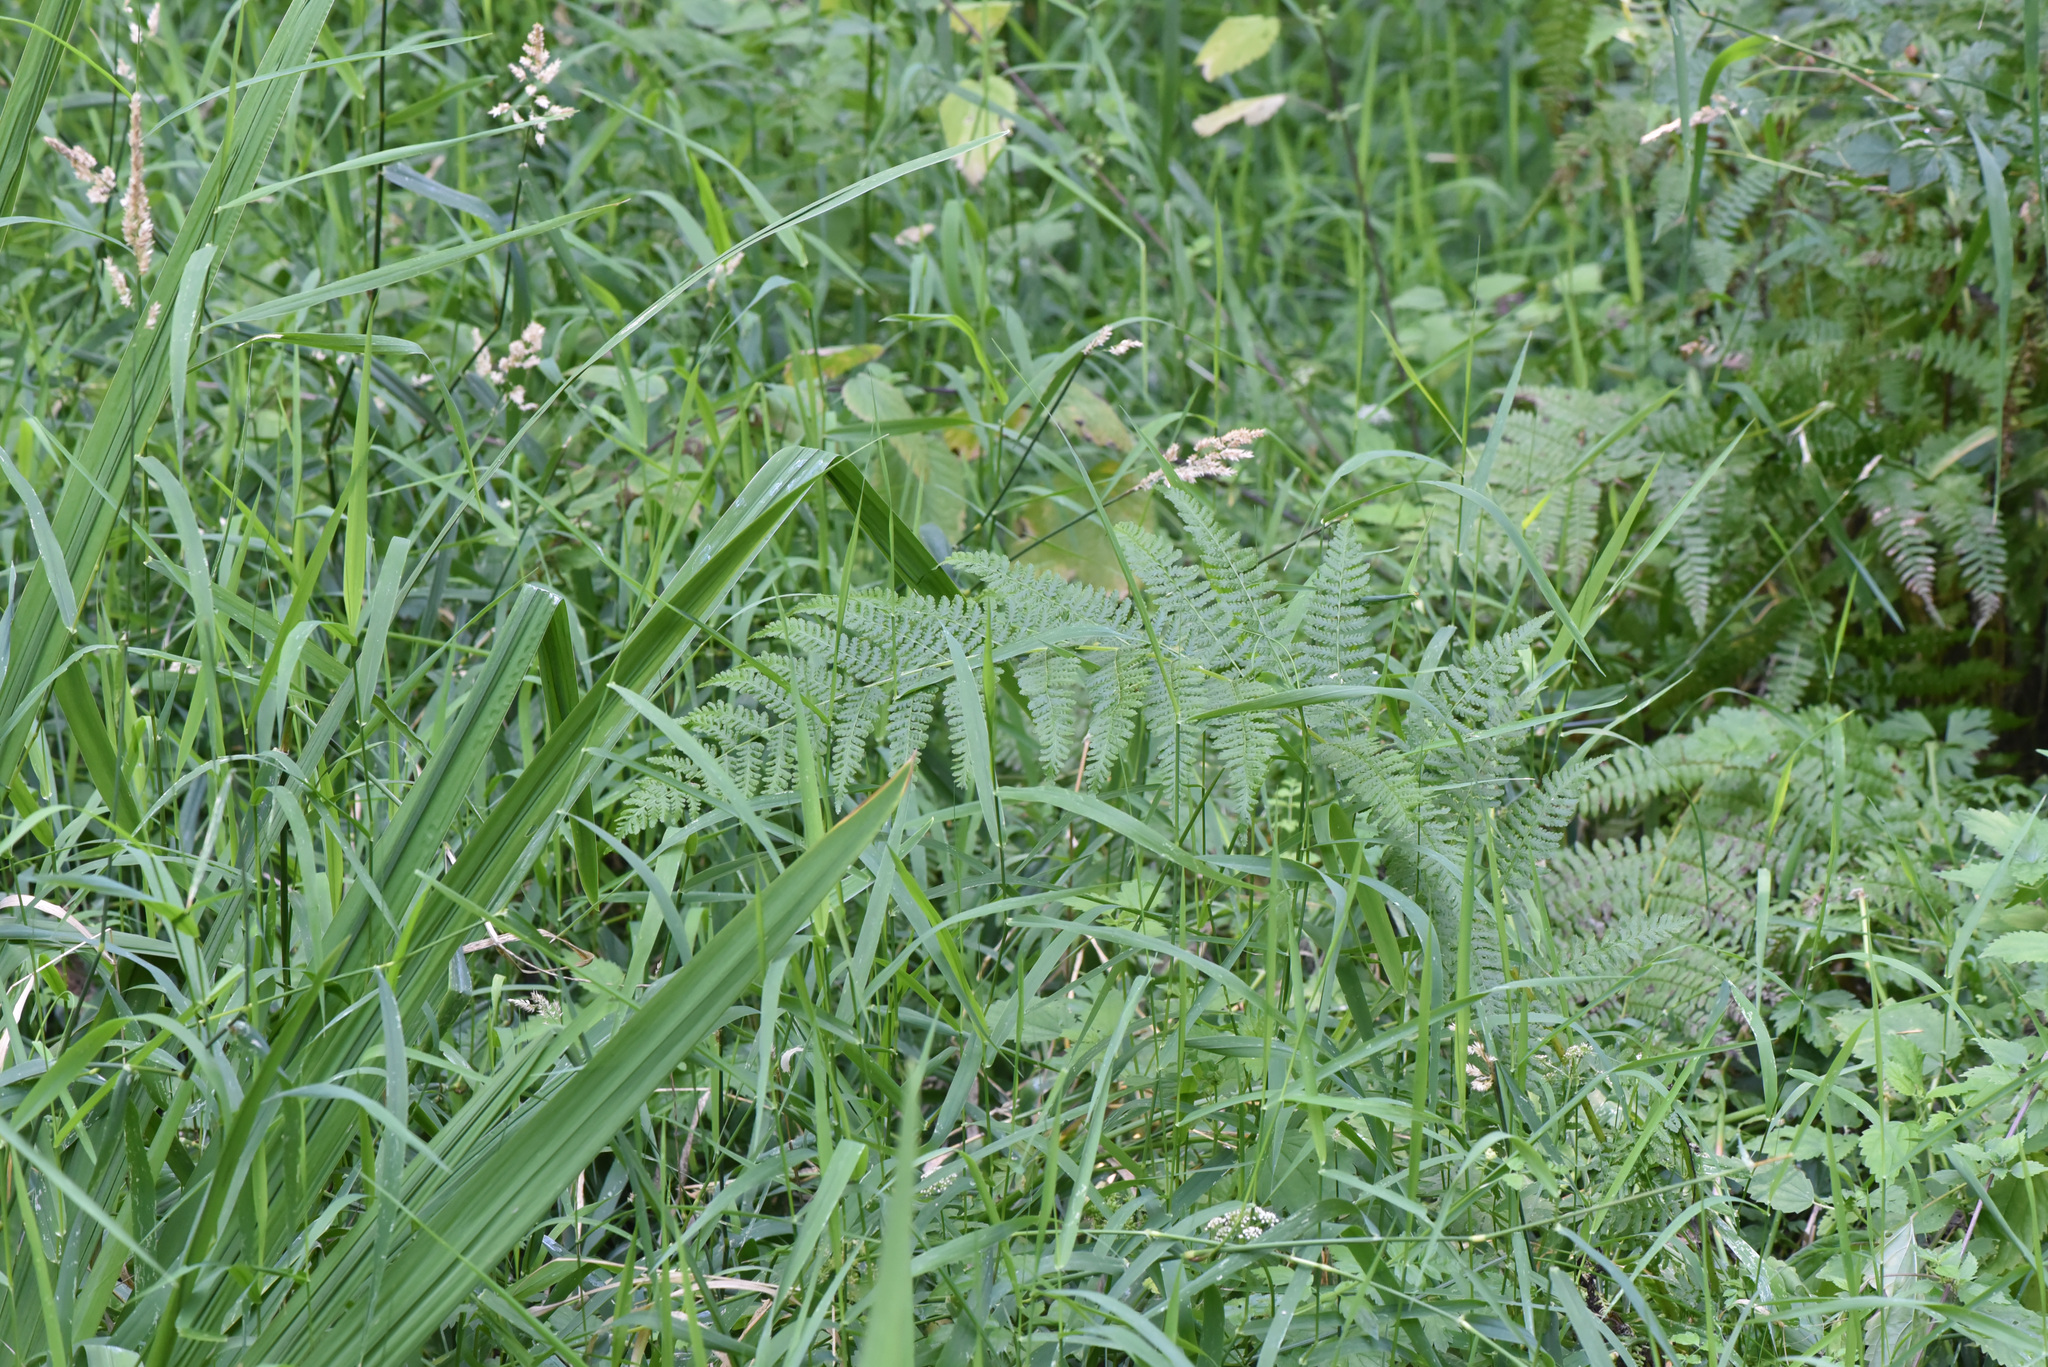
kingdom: Plantae
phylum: Tracheophyta
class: Polypodiopsida
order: Polypodiales
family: Athyriaceae
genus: Athyrium
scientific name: Athyrium filix-femina
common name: Lady fern
